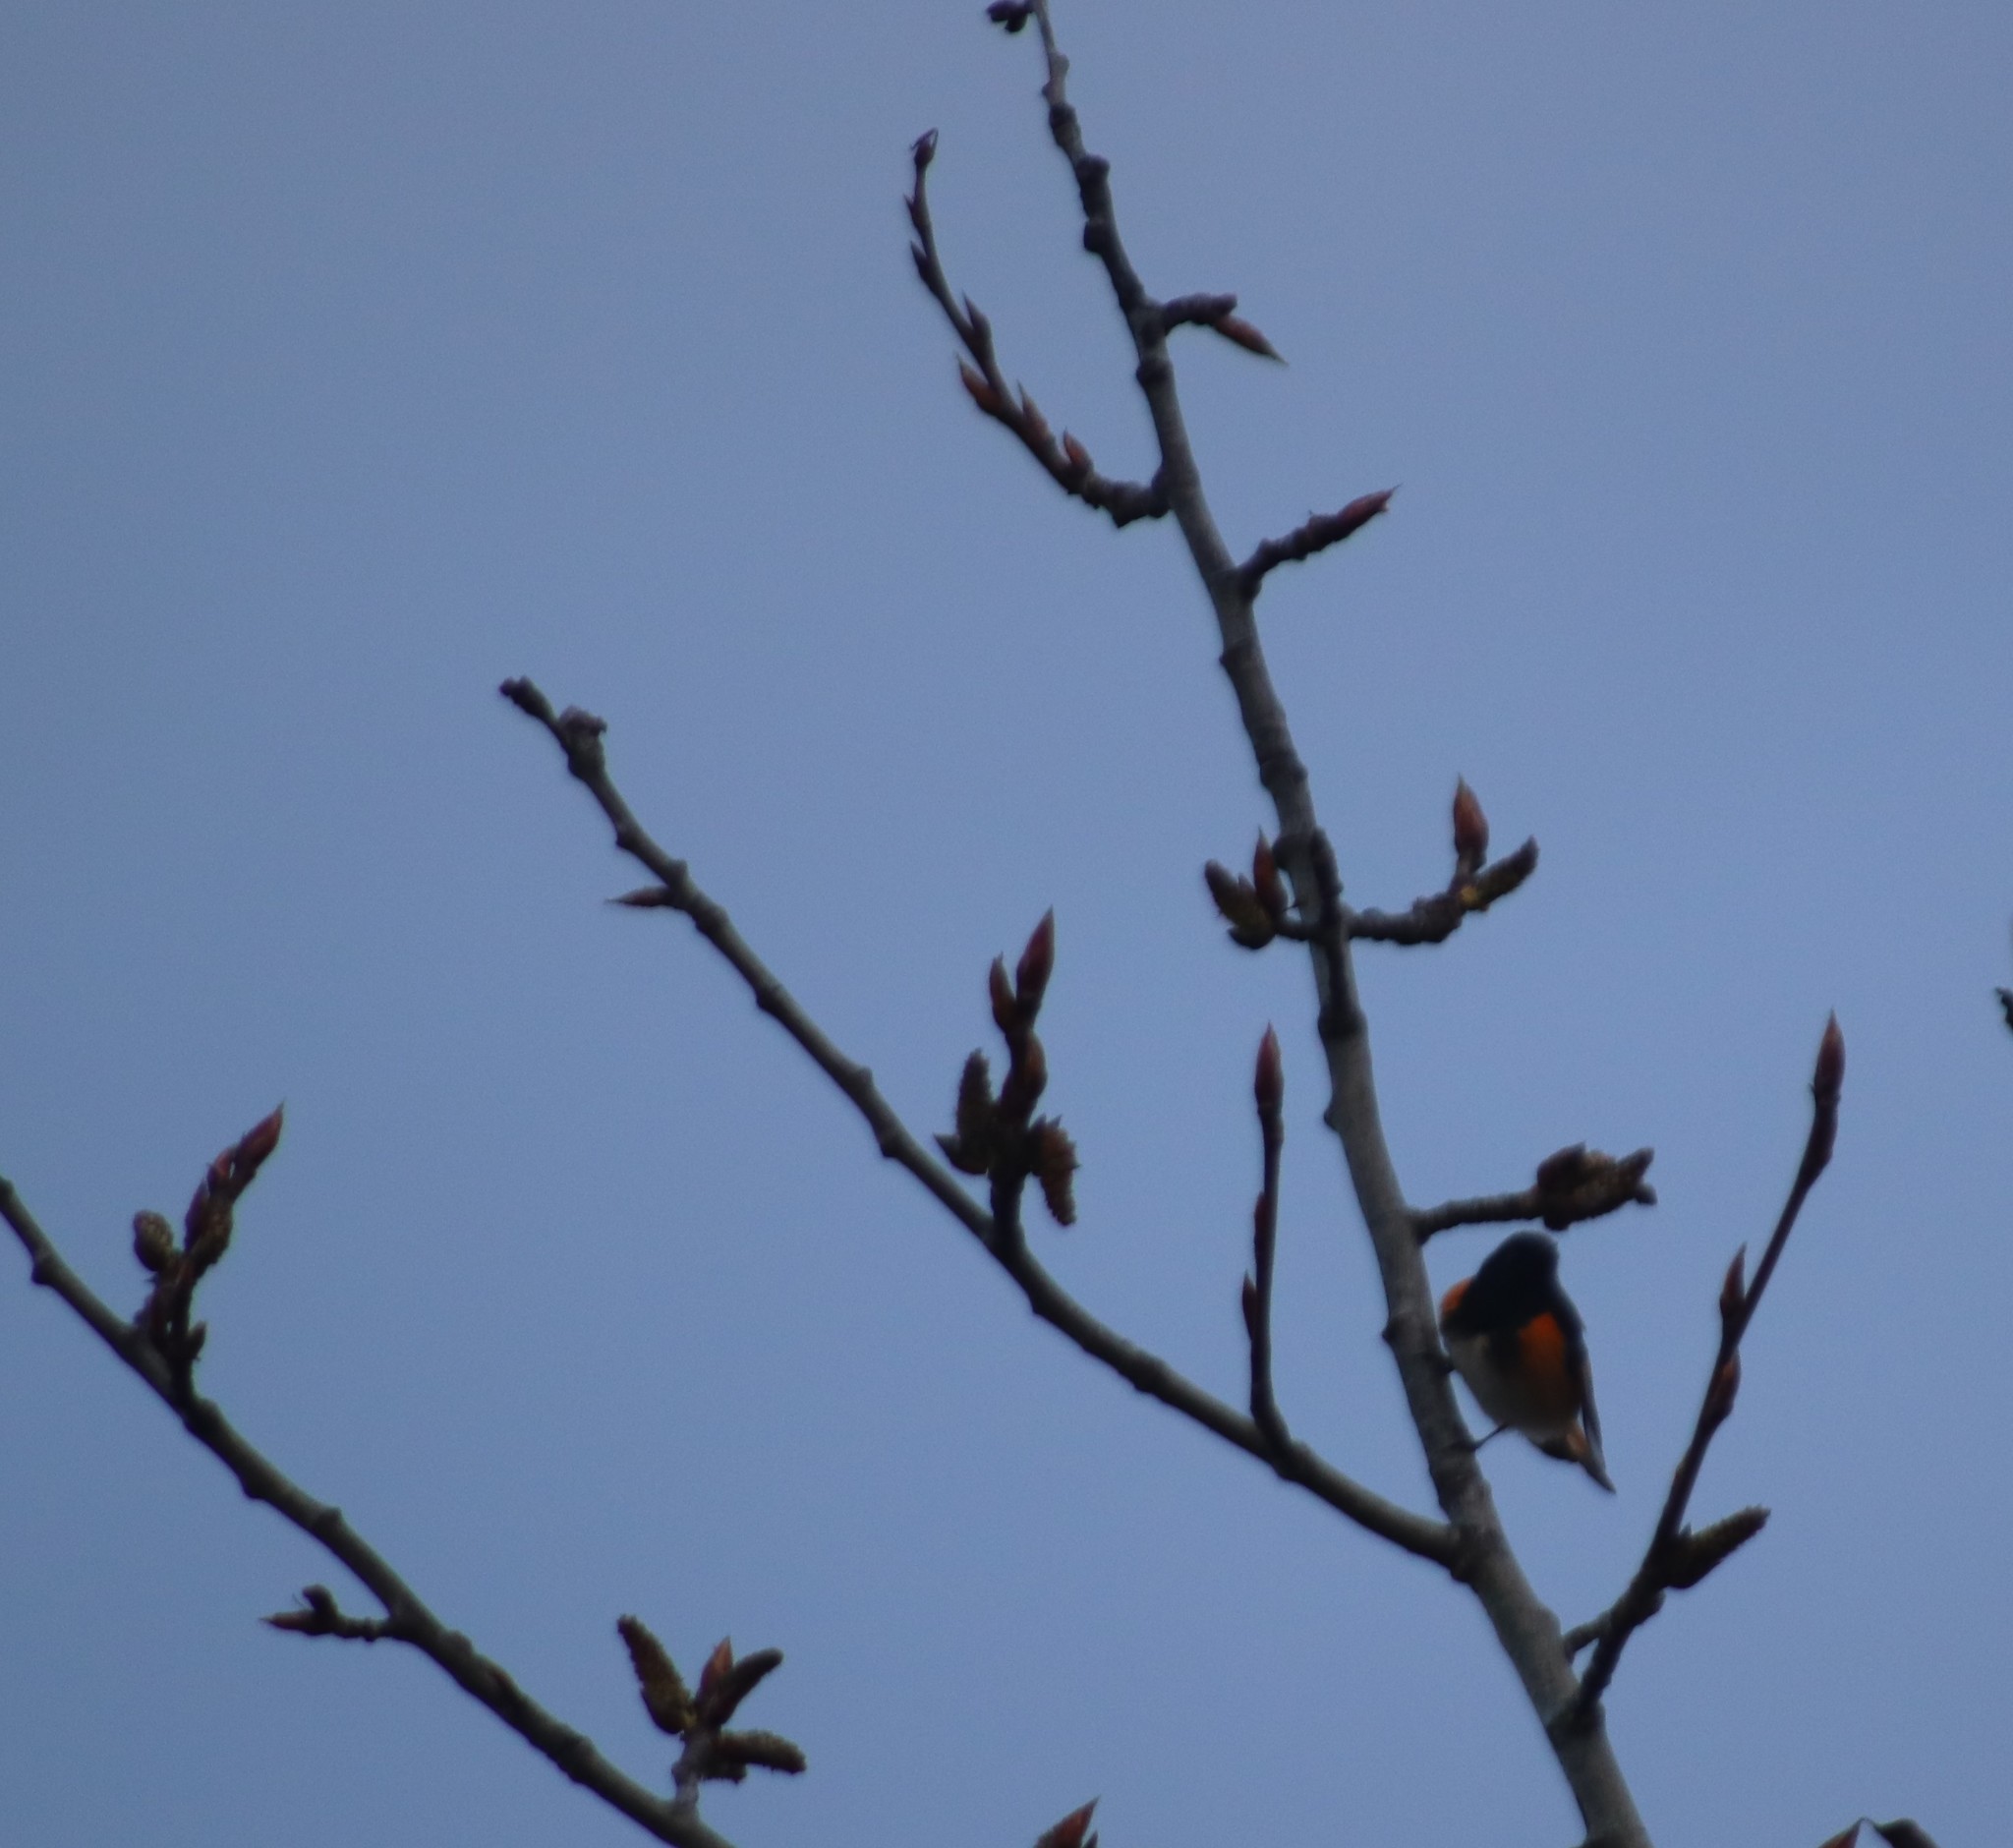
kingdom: Animalia
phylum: Chordata
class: Aves
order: Passeriformes
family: Parulidae
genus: Setophaga
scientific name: Setophaga ruticilla
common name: American redstart
